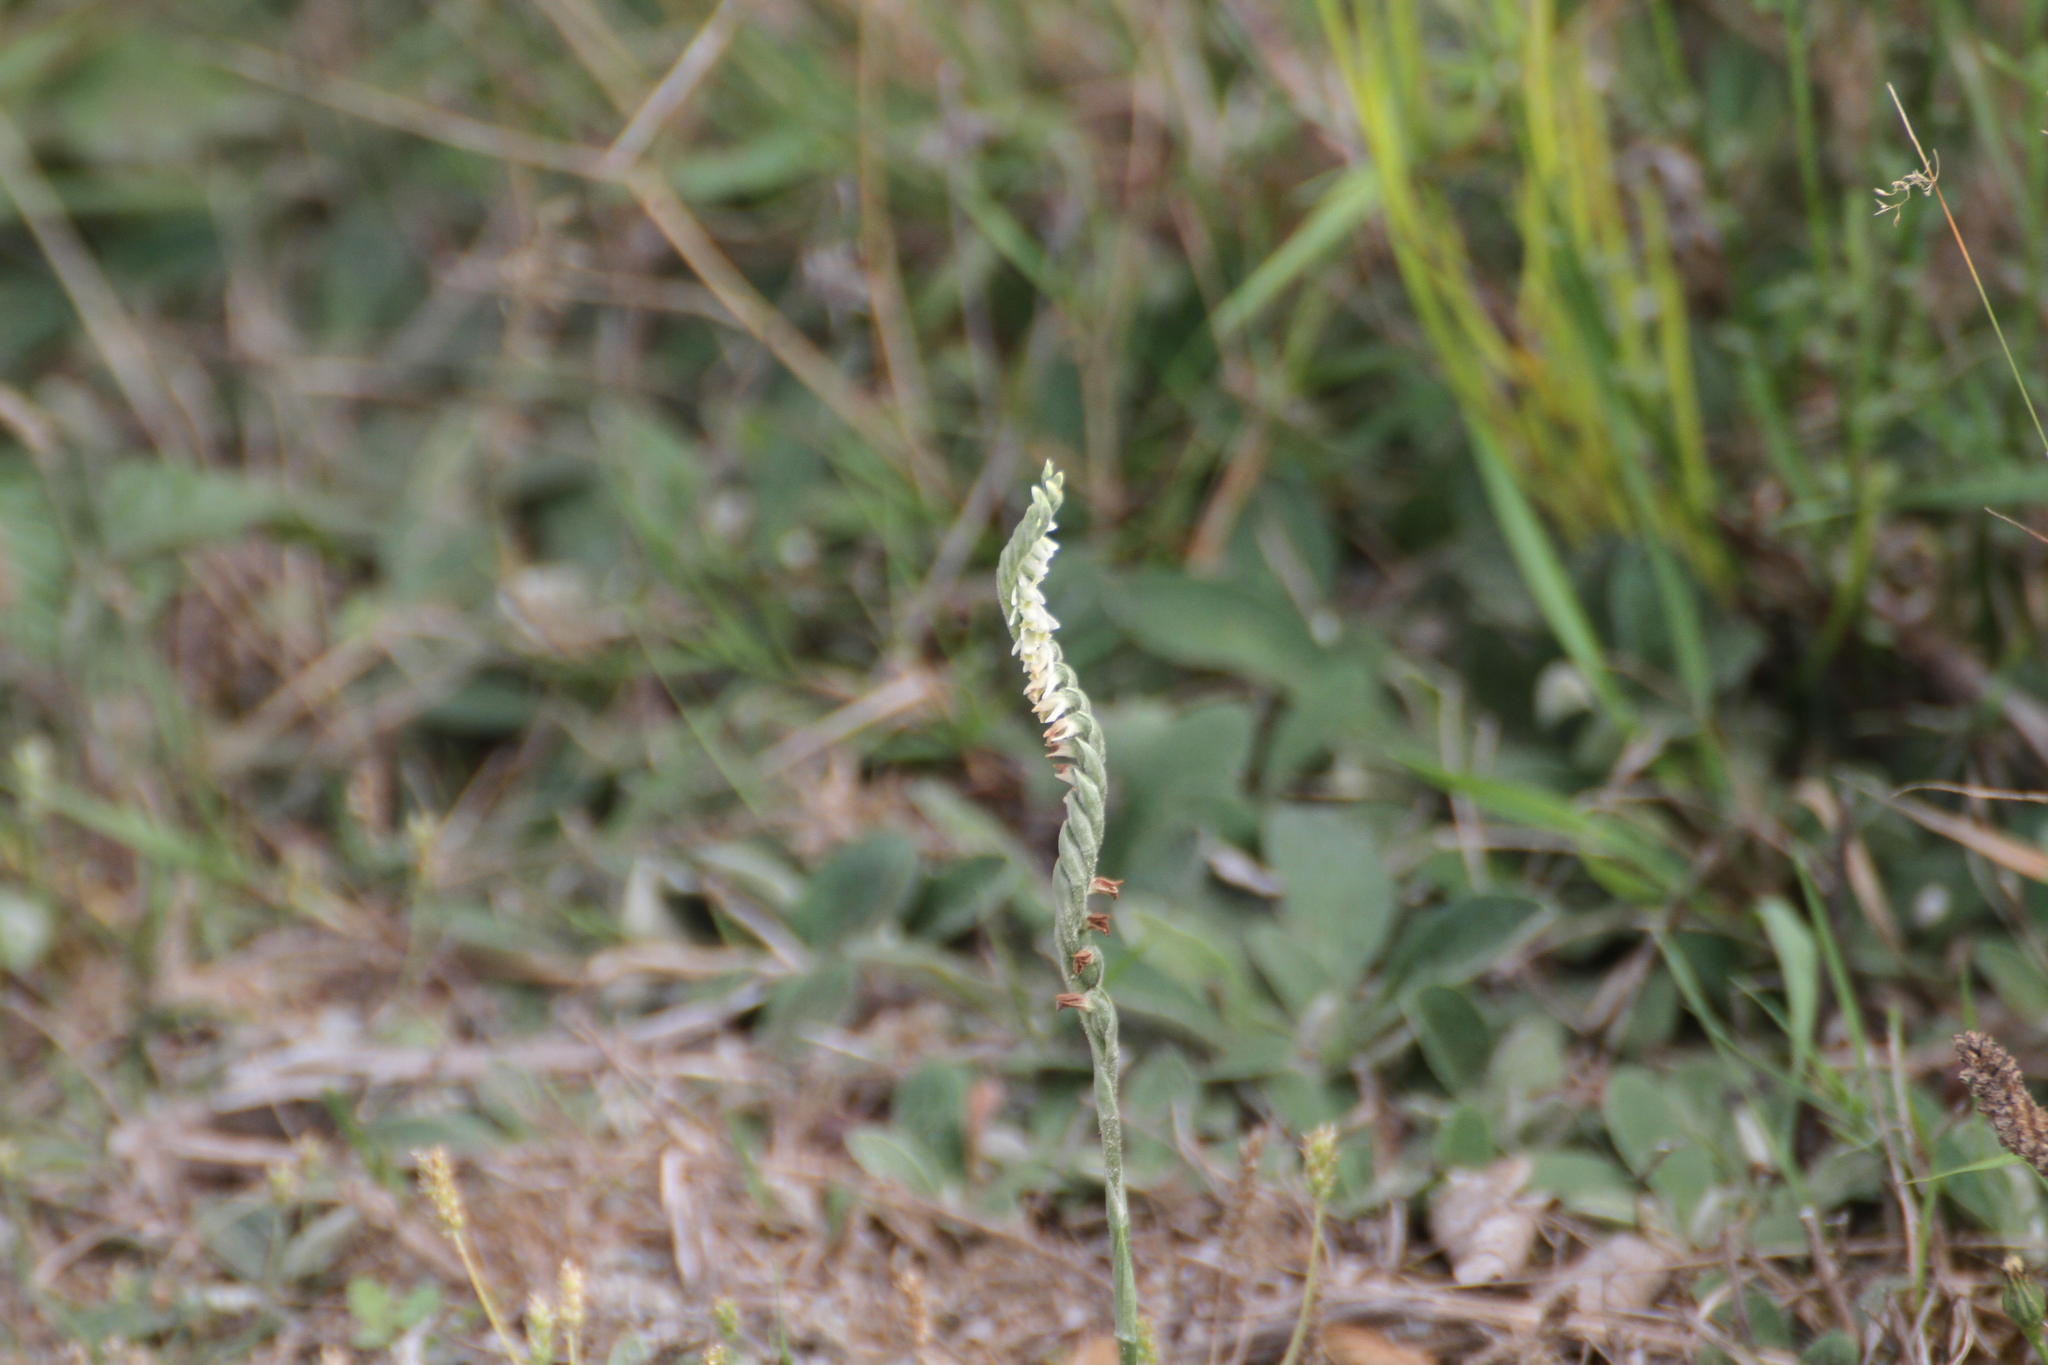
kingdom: Plantae
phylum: Tracheophyta
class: Liliopsida
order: Asparagales
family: Orchidaceae
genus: Spiranthes
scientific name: Spiranthes spiralis
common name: Autumn lady's-tresses
